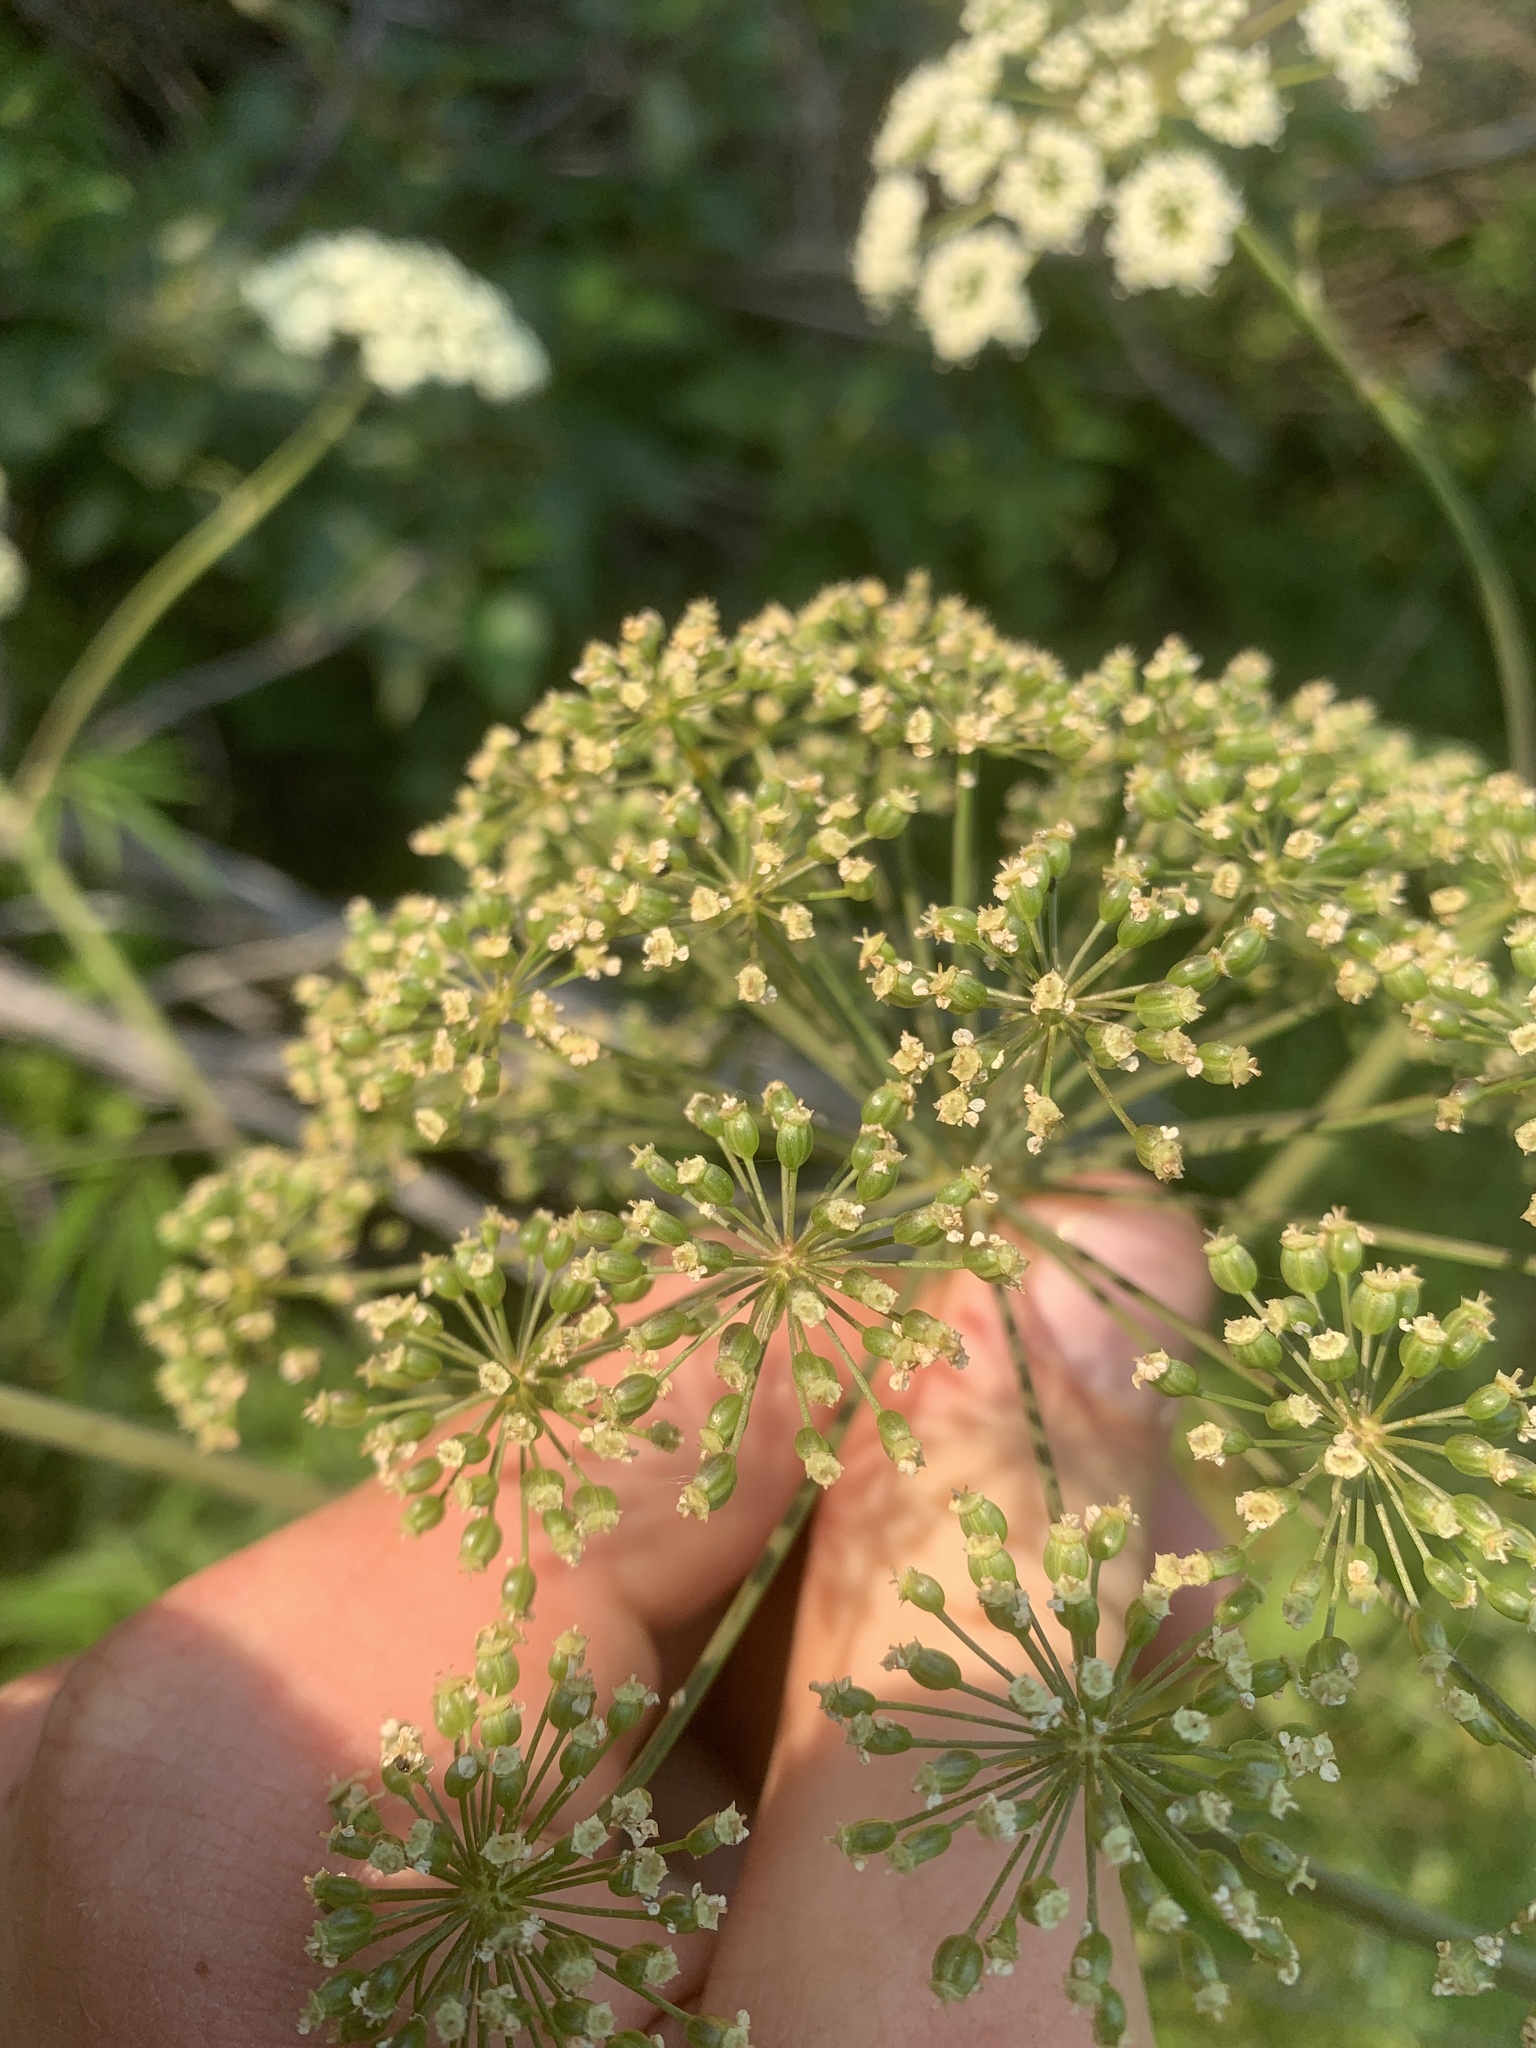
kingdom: Plantae
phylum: Tracheophyta
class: Magnoliopsida
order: Apiales
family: Apiaceae
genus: Cicuta
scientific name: Cicuta maculata
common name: Spotted cowbane
